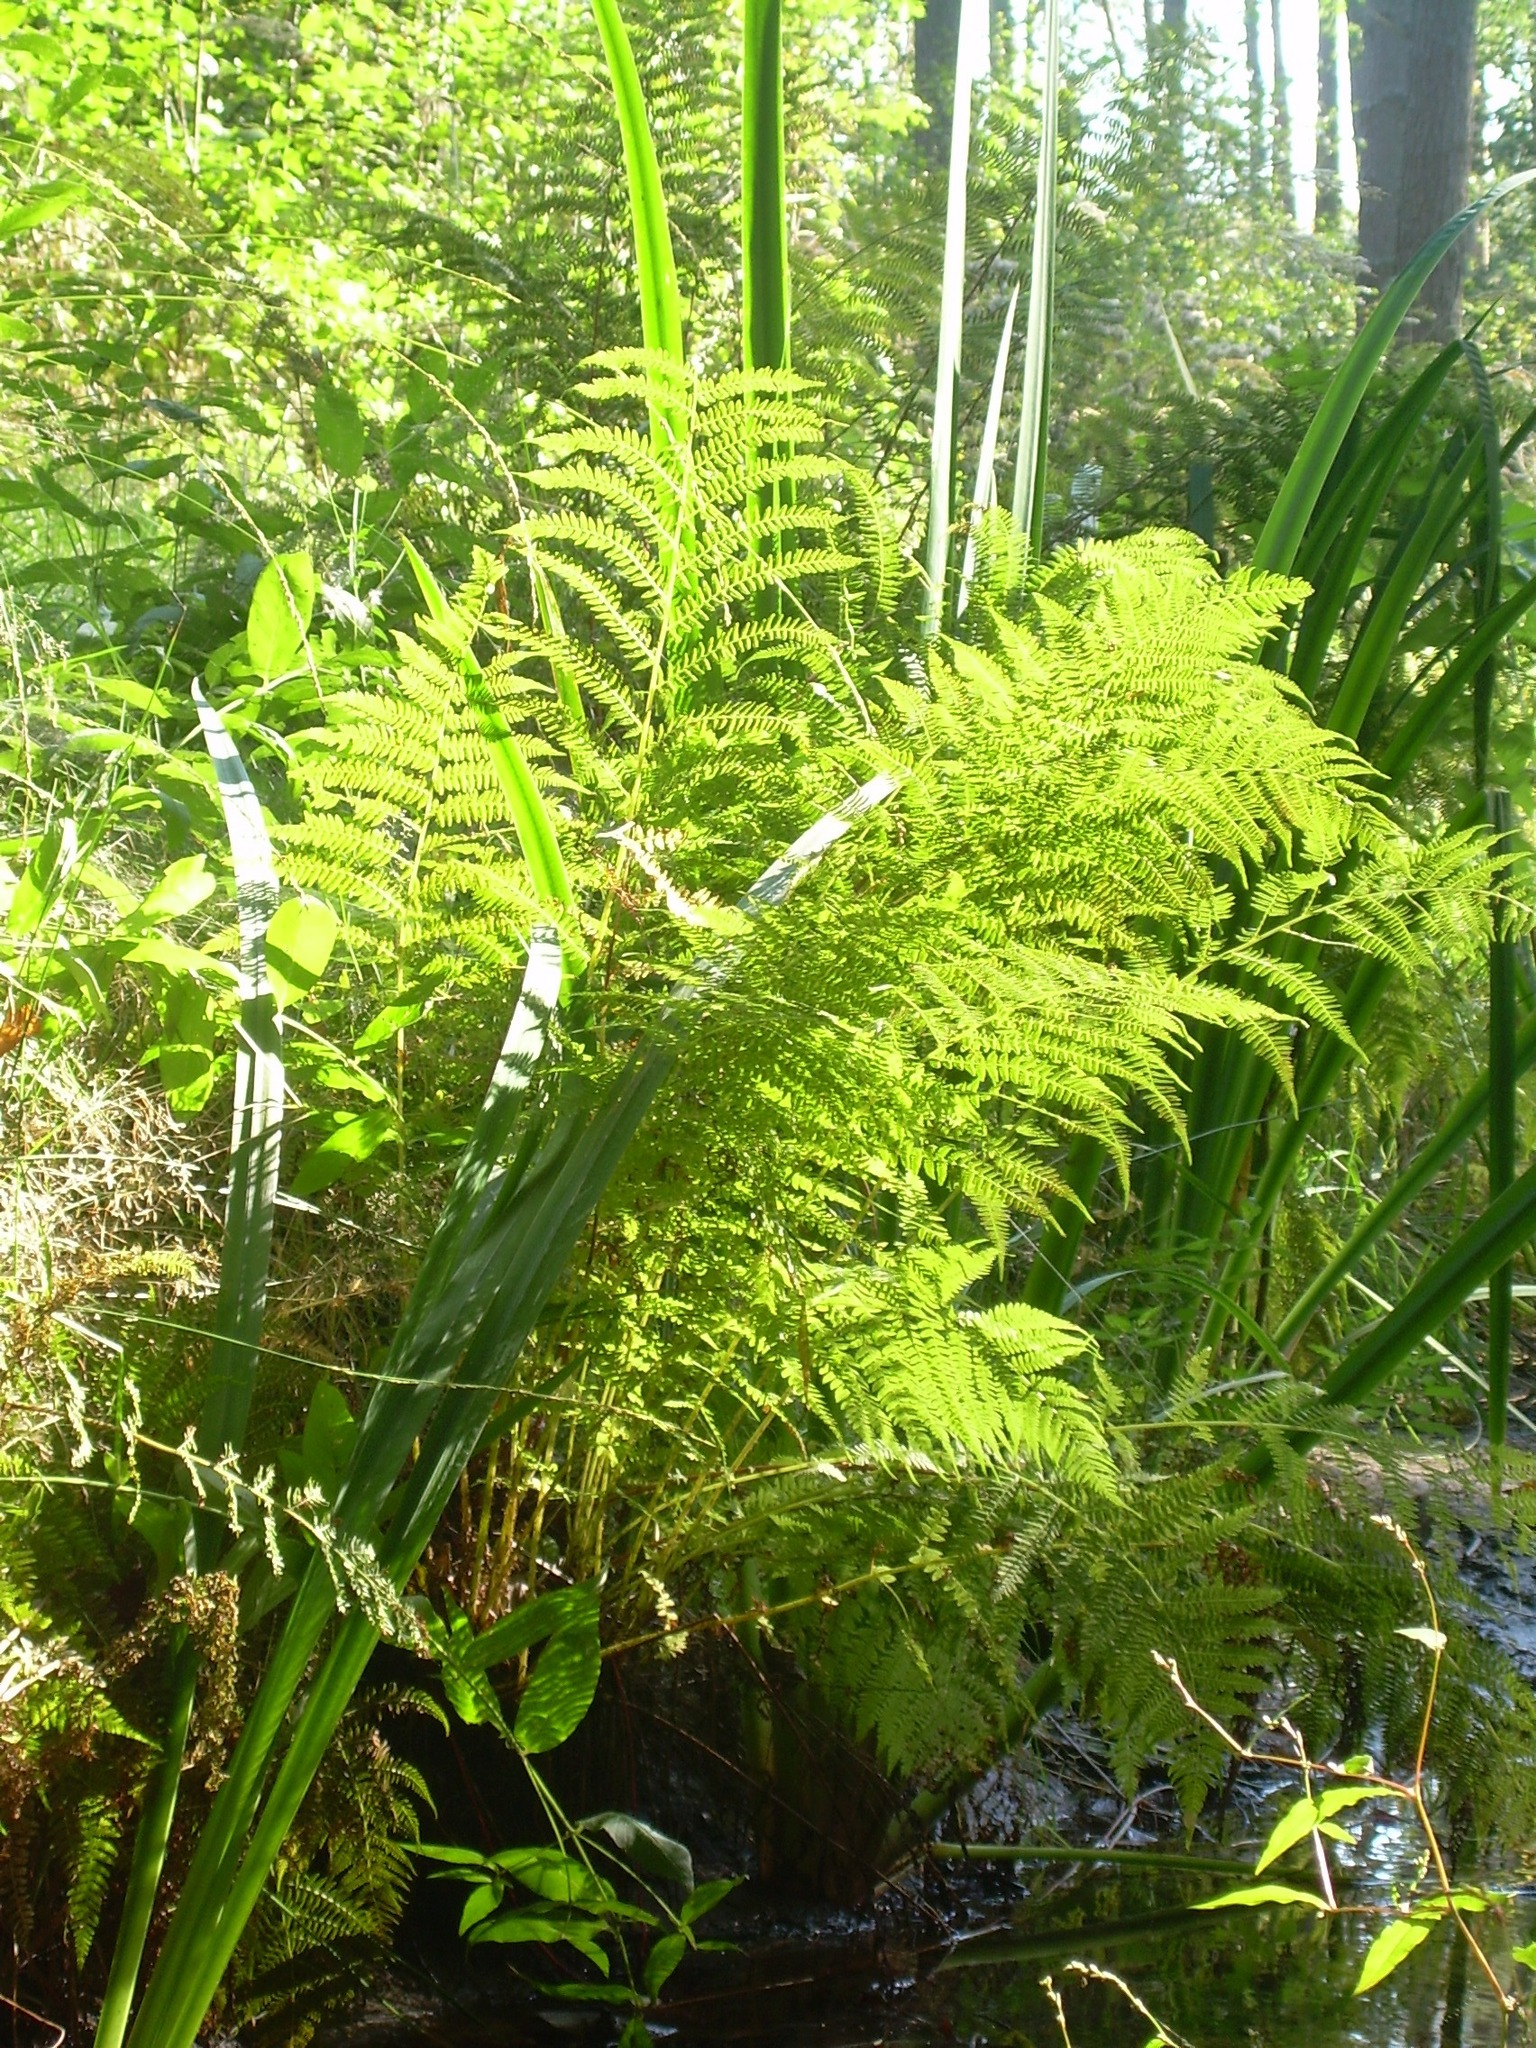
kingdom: Plantae
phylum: Tracheophyta
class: Polypodiopsida
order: Polypodiales
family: Athyriaceae
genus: Athyrium
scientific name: Athyrium filix-femina
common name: Lady fern
